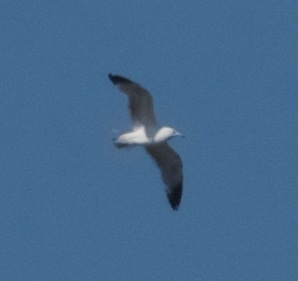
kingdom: Animalia
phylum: Chordata
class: Aves
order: Charadriiformes
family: Laridae
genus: Larus
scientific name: Larus delawarensis
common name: Ring-billed gull
